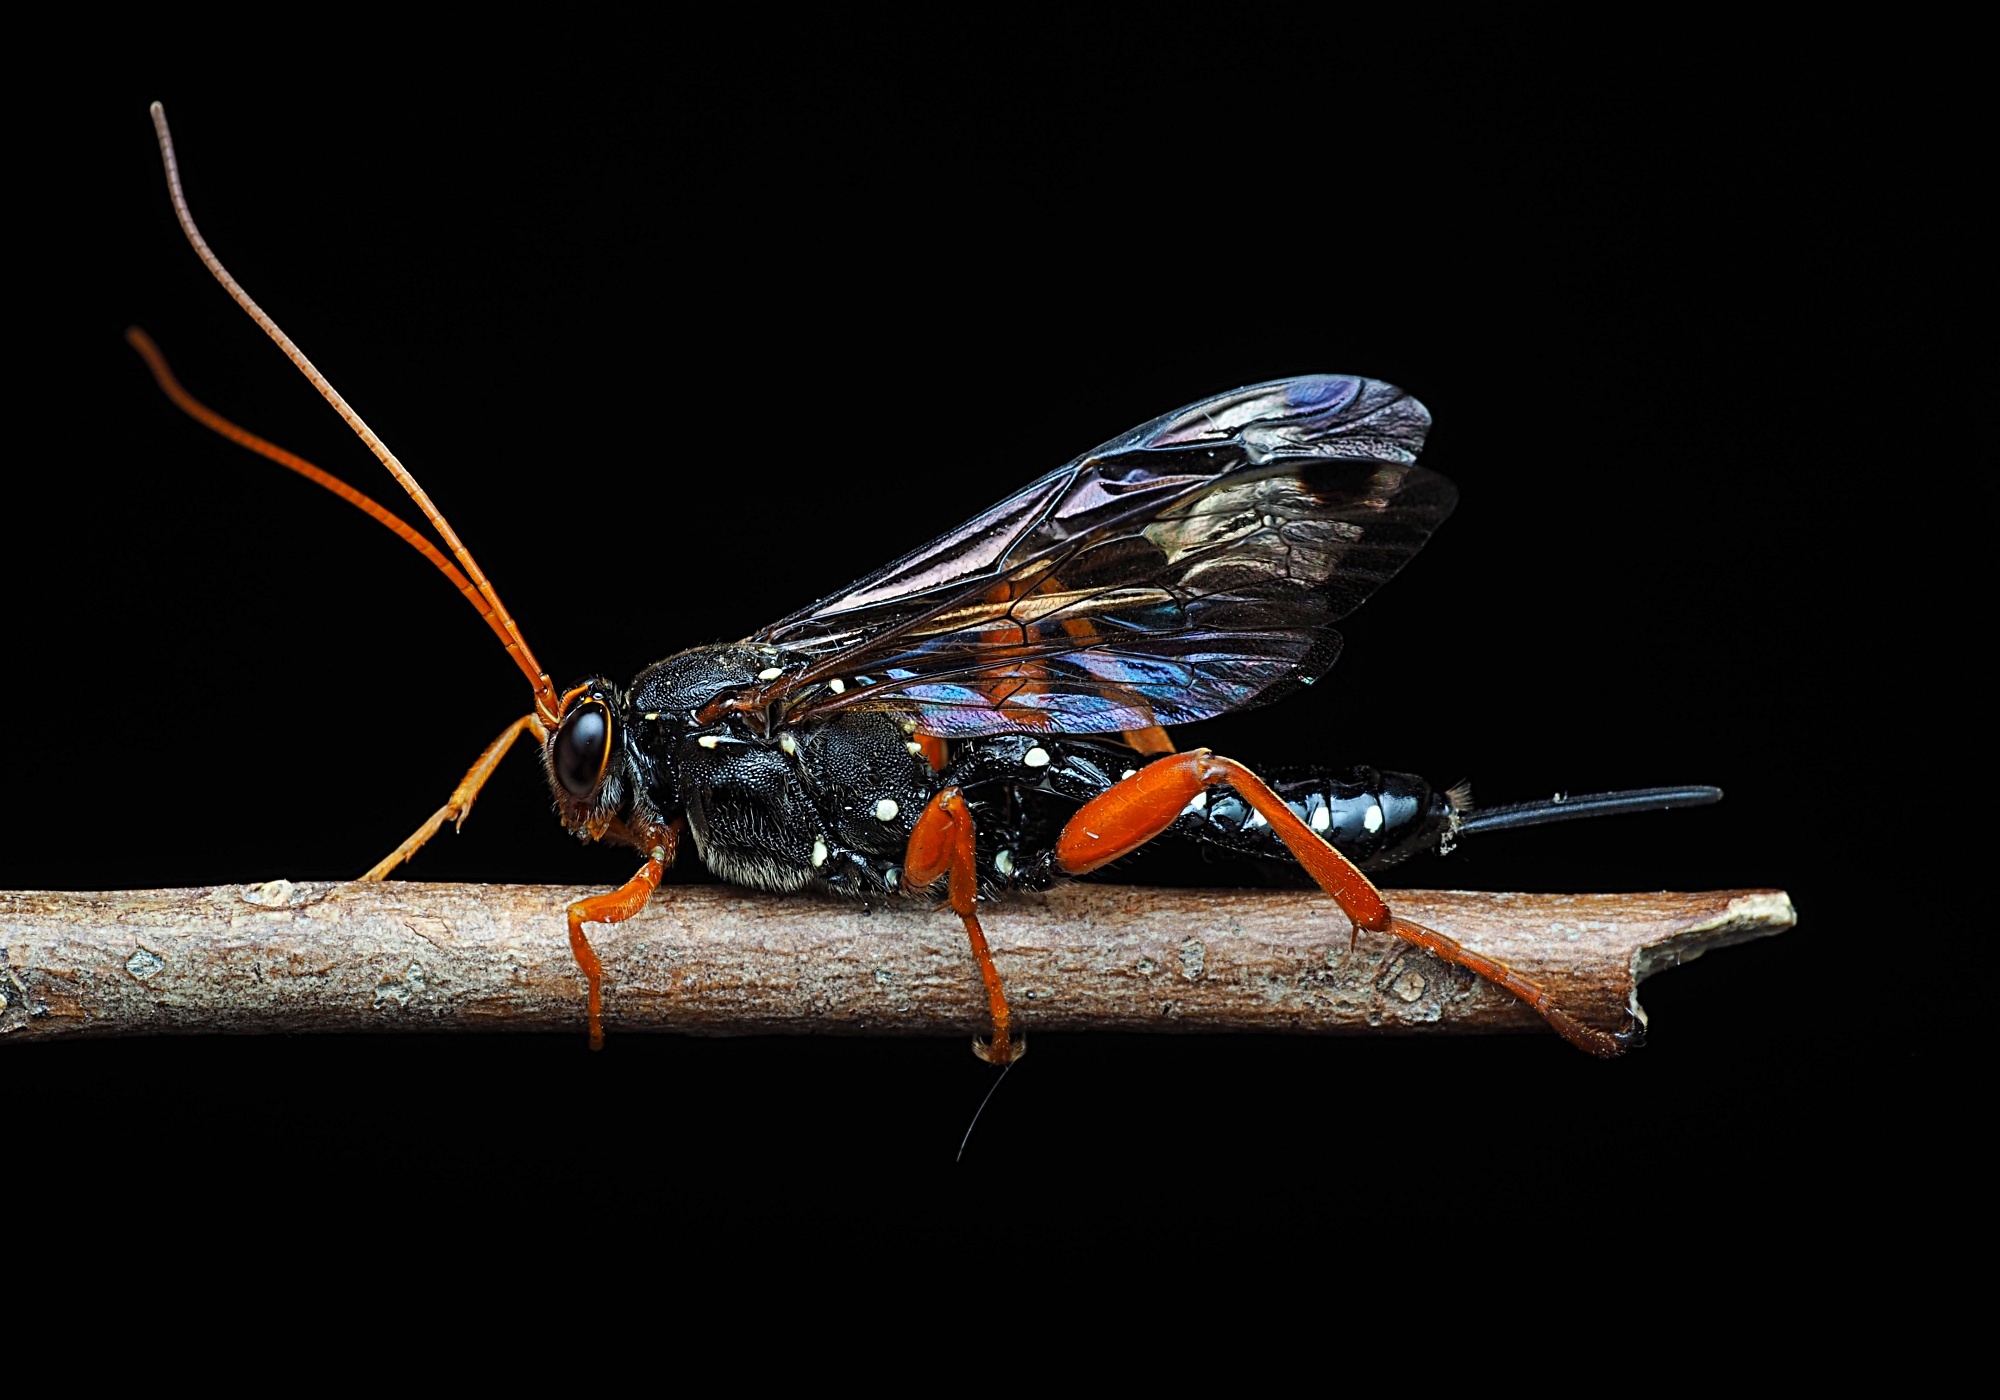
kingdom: Animalia
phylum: Arthropoda
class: Insecta
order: Hymenoptera
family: Ichneumonidae
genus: Echthromorpha
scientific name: Echthromorpha intricatoria
